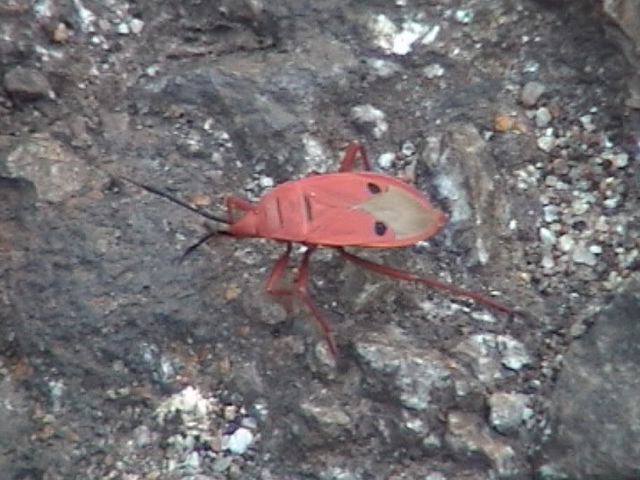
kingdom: Animalia
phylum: Arthropoda
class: Insecta
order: Hemiptera
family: Pyrrhocoridae
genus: Probergrothius
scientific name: Probergrothius nigricornis
